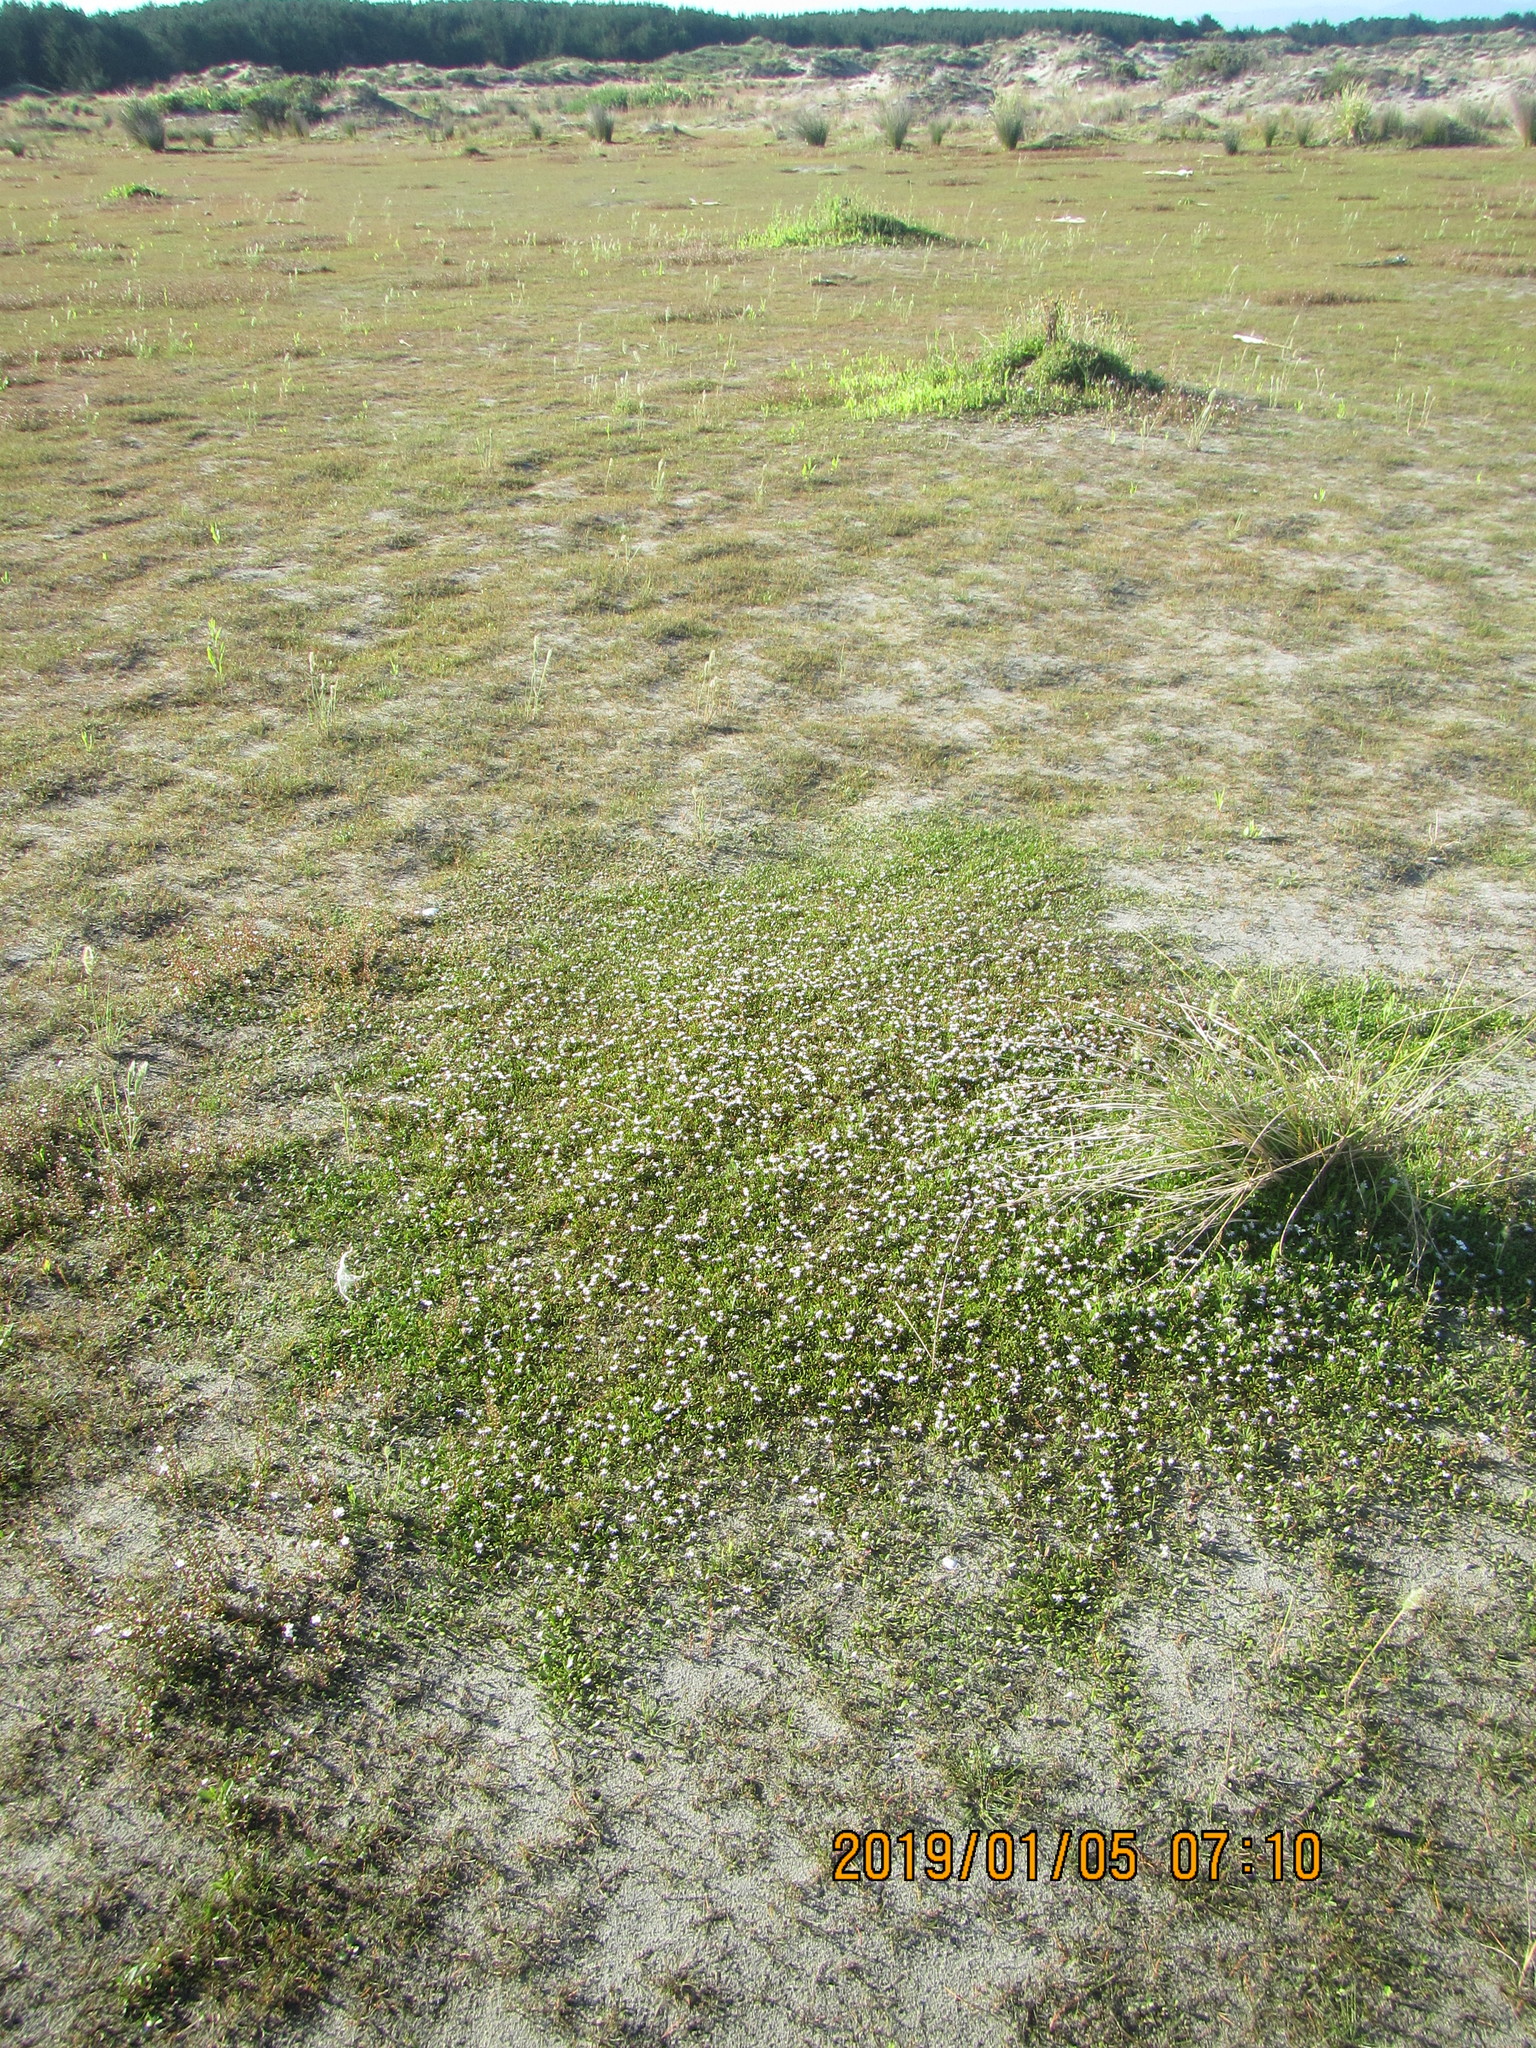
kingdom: Plantae
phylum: Tracheophyta
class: Magnoliopsida
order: Asterales
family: Goodeniaceae
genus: Goodenia
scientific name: Goodenia radicans
